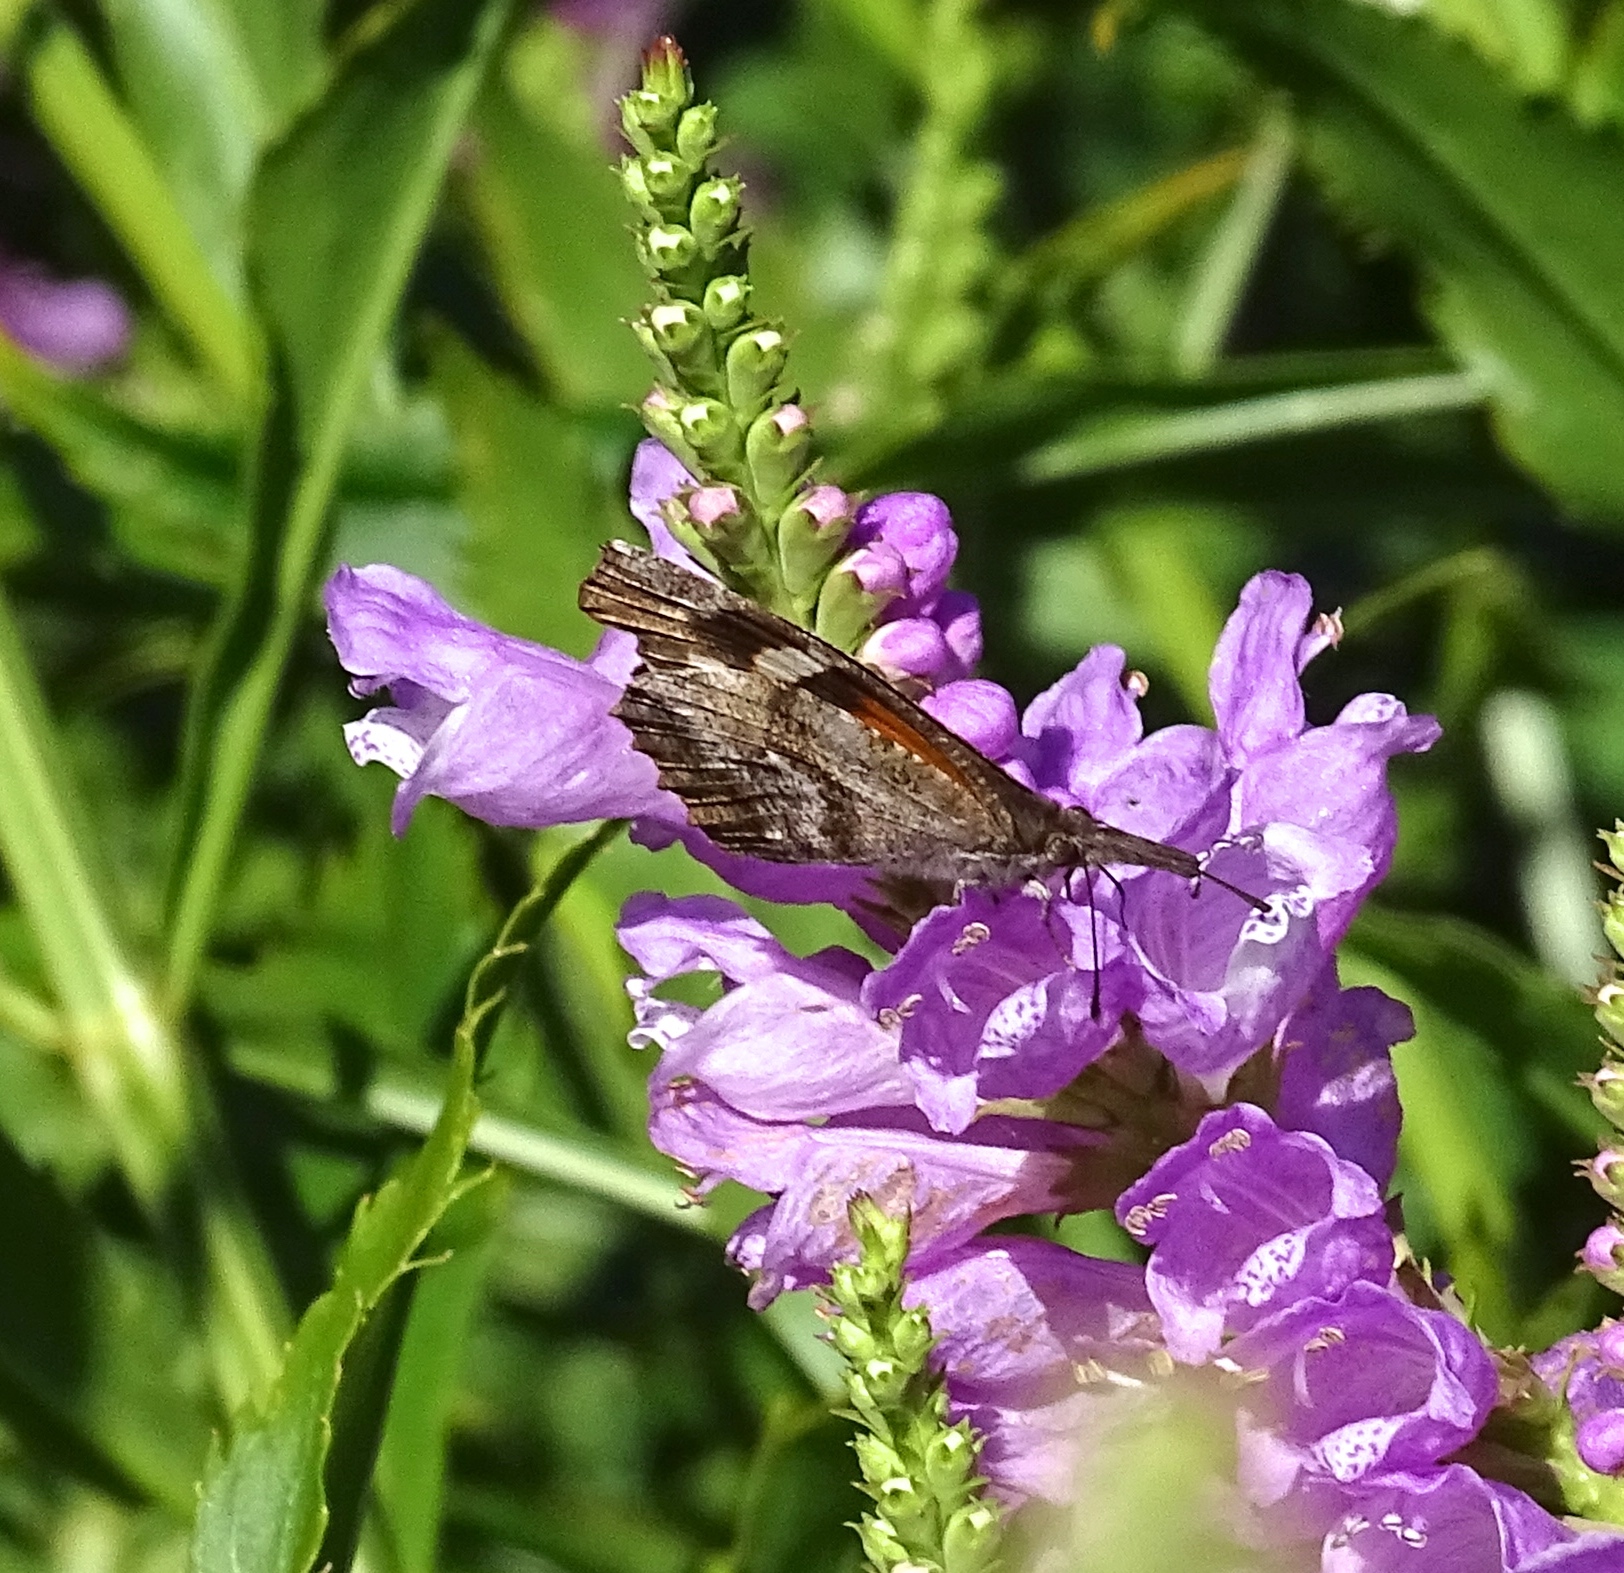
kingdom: Animalia
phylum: Arthropoda
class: Insecta
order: Lepidoptera
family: Nymphalidae
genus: Libytheana
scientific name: Libytheana carinenta
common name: American snout
